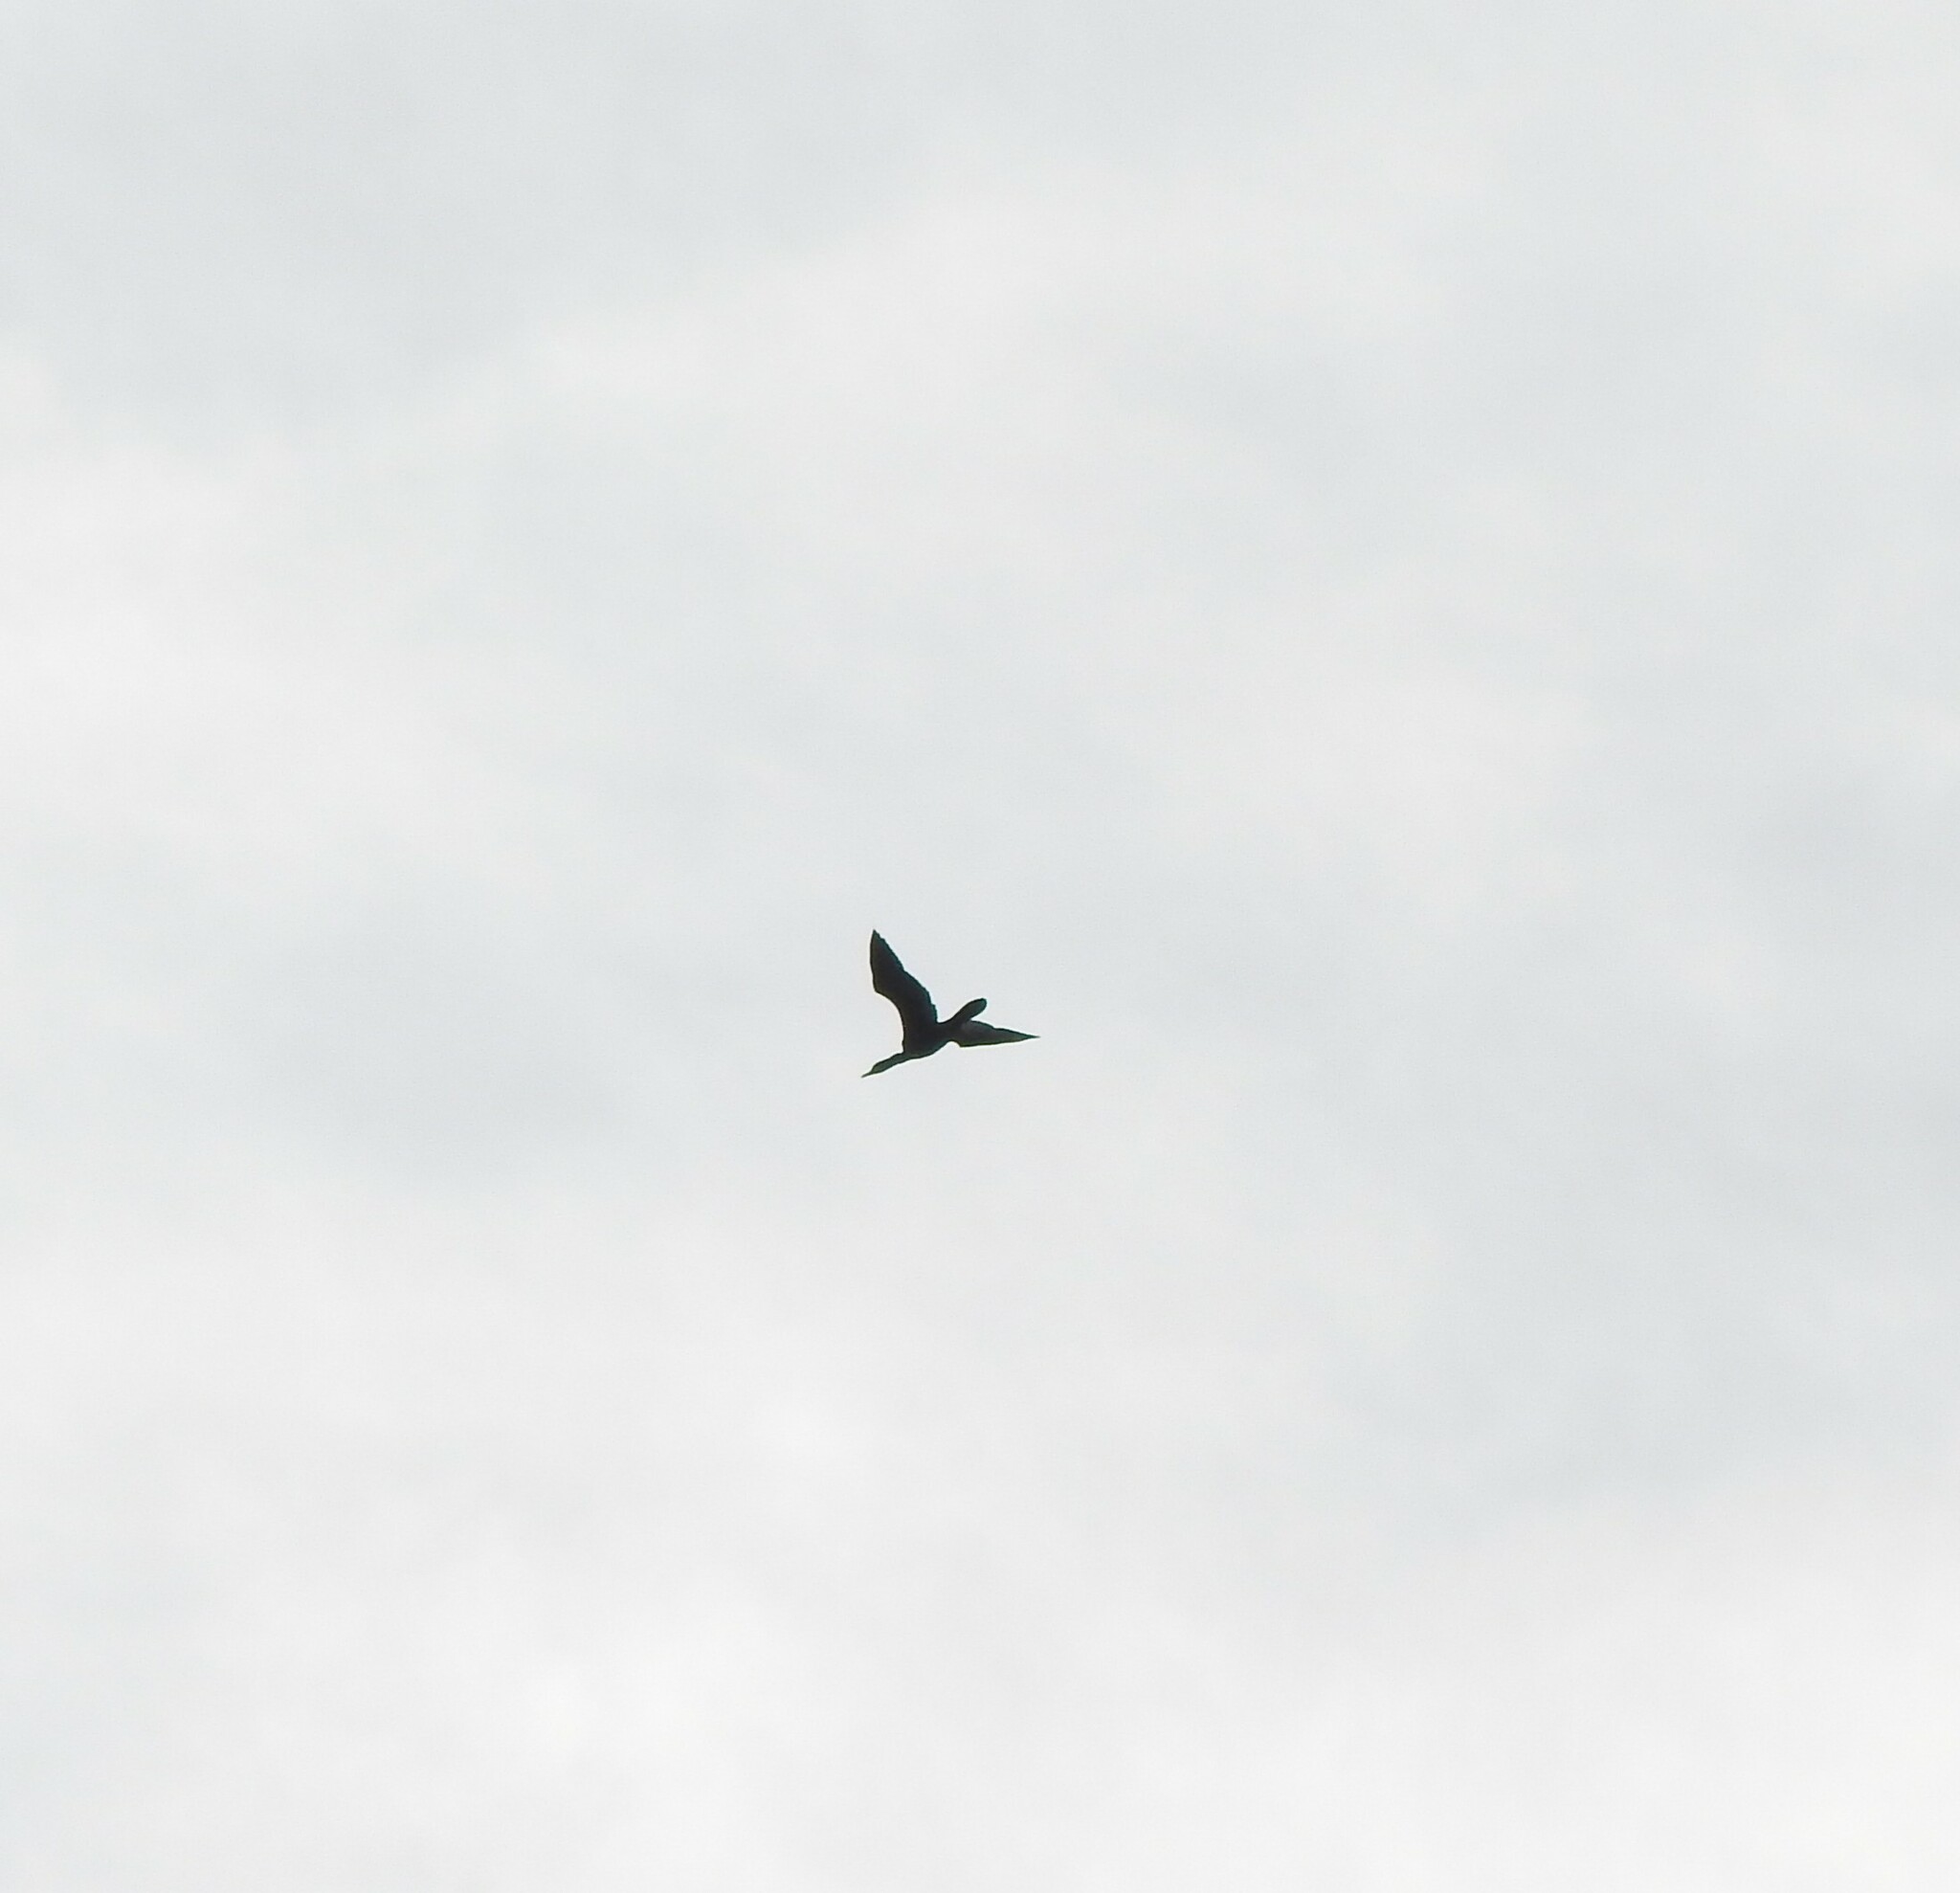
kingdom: Animalia
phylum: Chordata
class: Aves
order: Suliformes
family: Phalacrocoracidae
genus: Phalacrocorax
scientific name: Phalacrocorax brasilianus
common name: Neotropic cormorant
